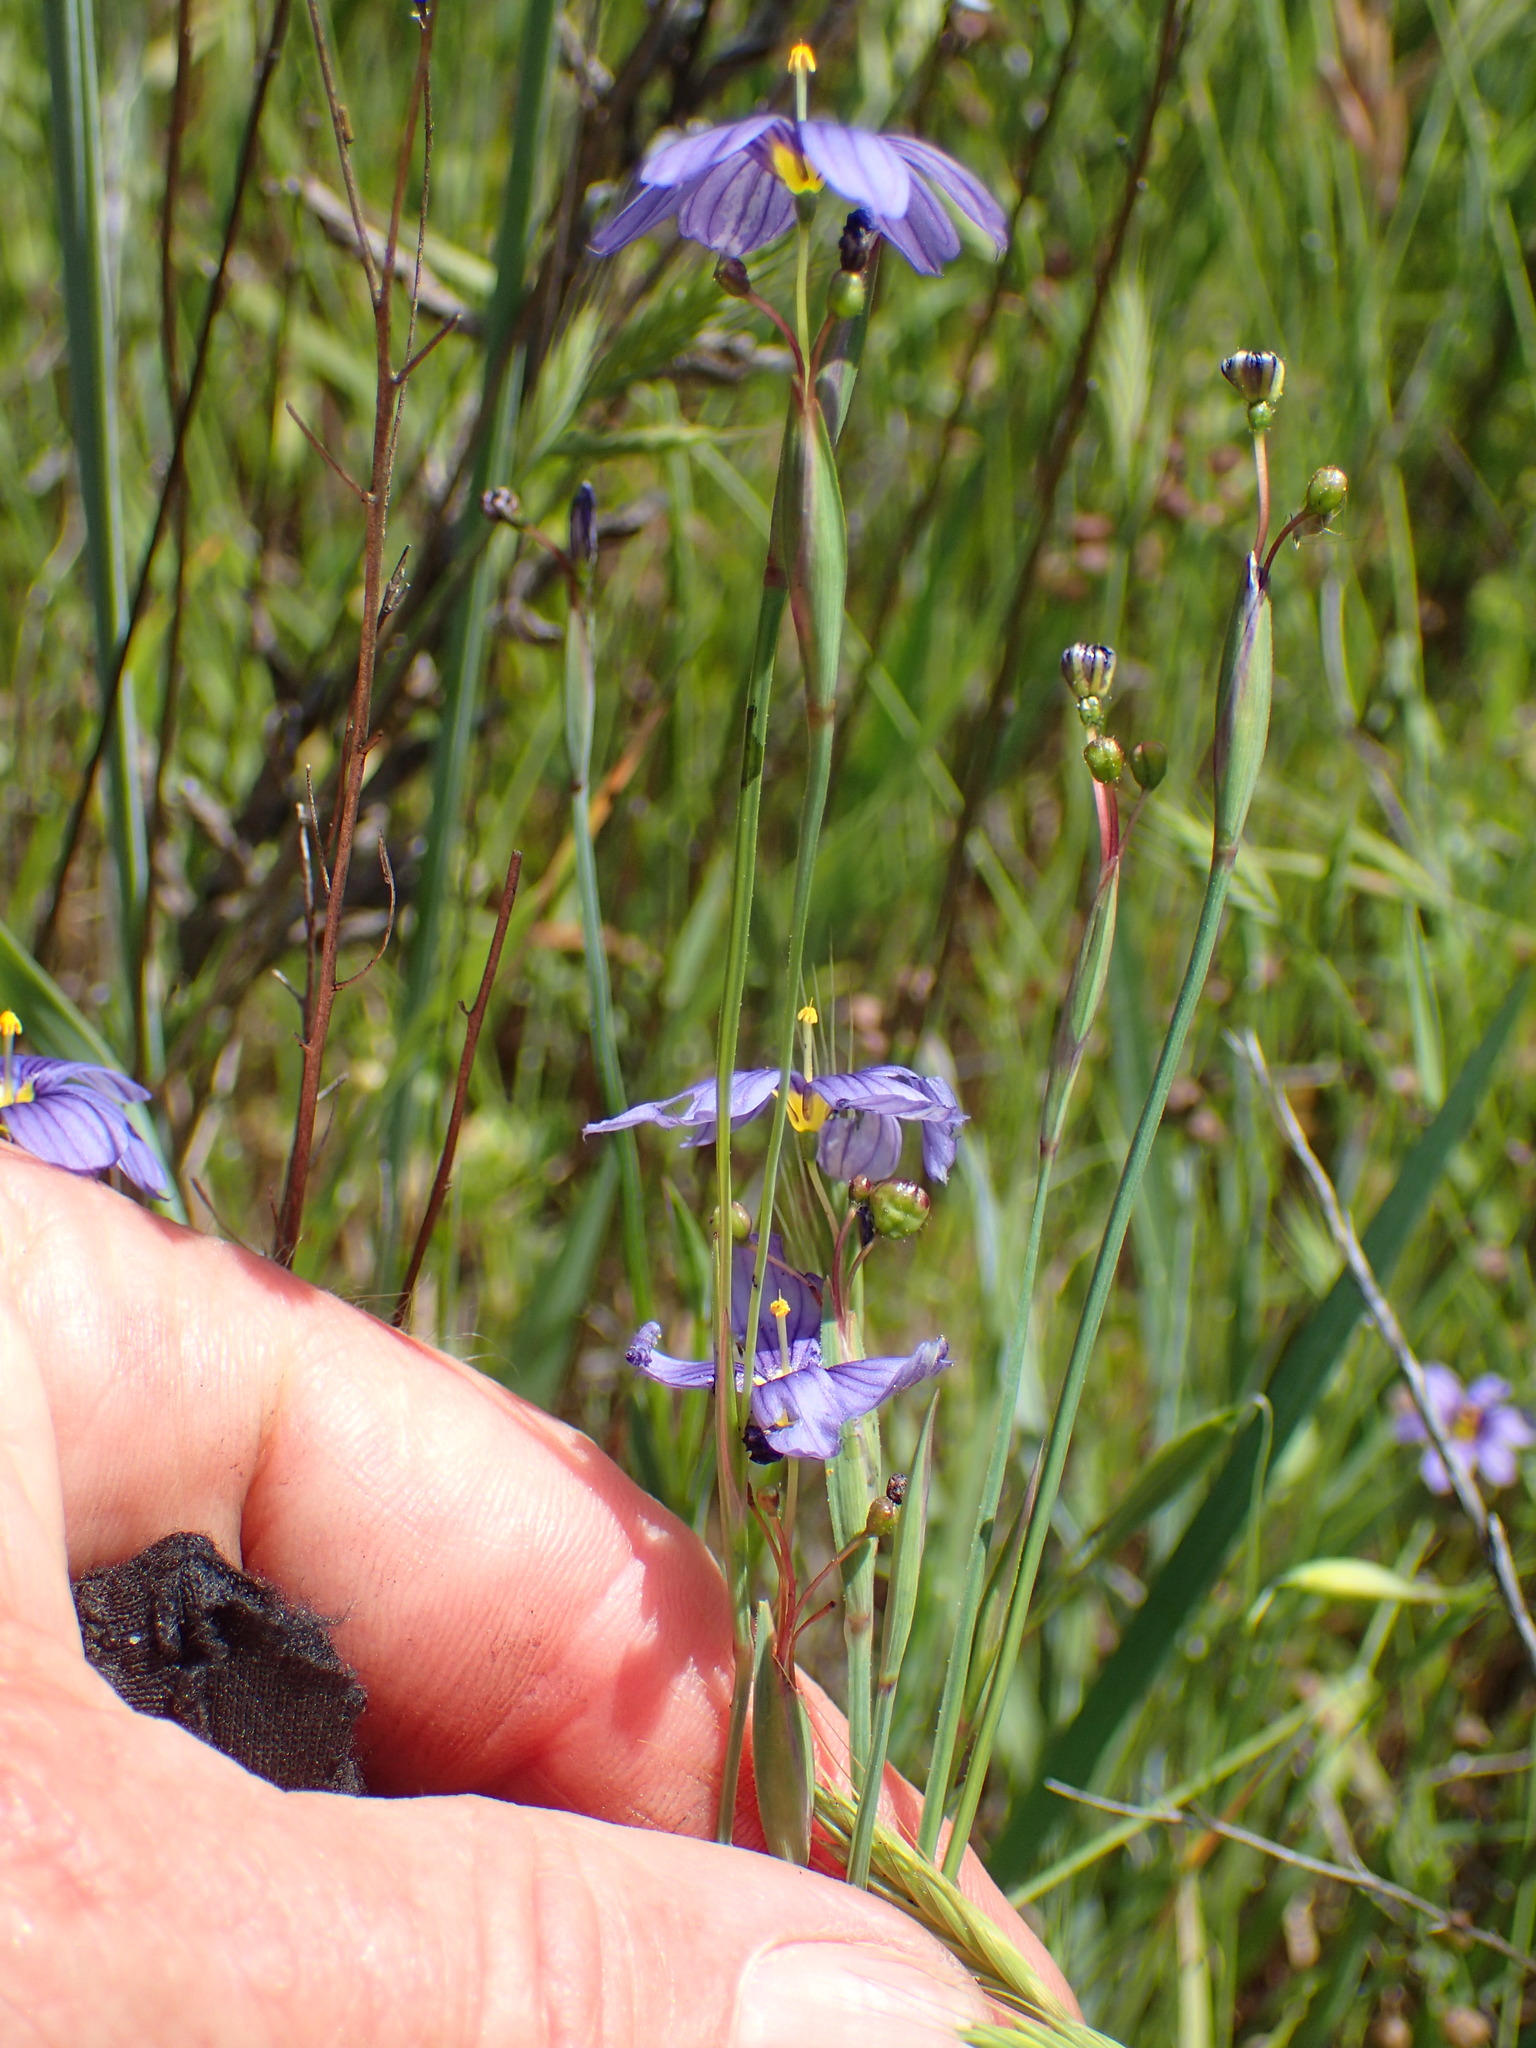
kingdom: Plantae
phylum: Tracheophyta
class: Liliopsida
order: Asparagales
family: Iridaceae
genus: Sisyrinchium
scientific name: Sisyrinchium bellum
